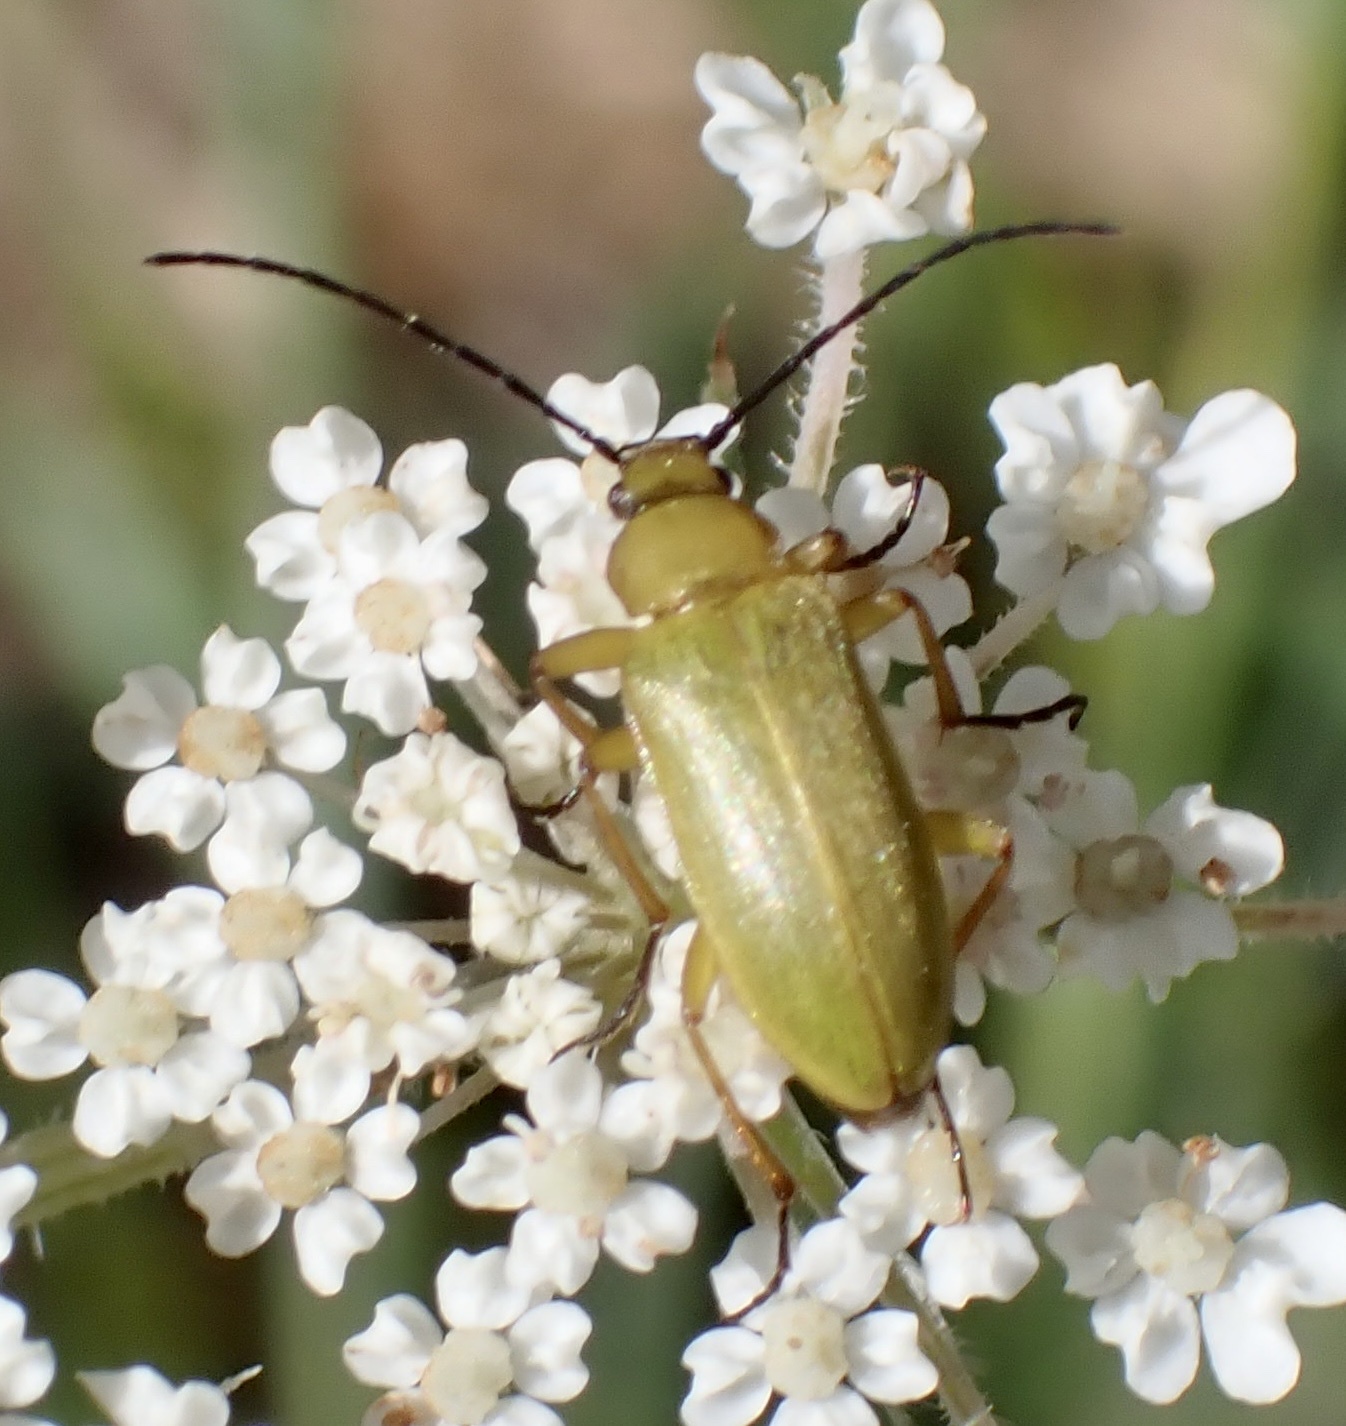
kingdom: Animalia
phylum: Arthropoda
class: Insecta
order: Coleoptera
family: Tenebrionidae
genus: Cteniopus
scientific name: Cteniopus sulphureus
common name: Sulphur beetle
